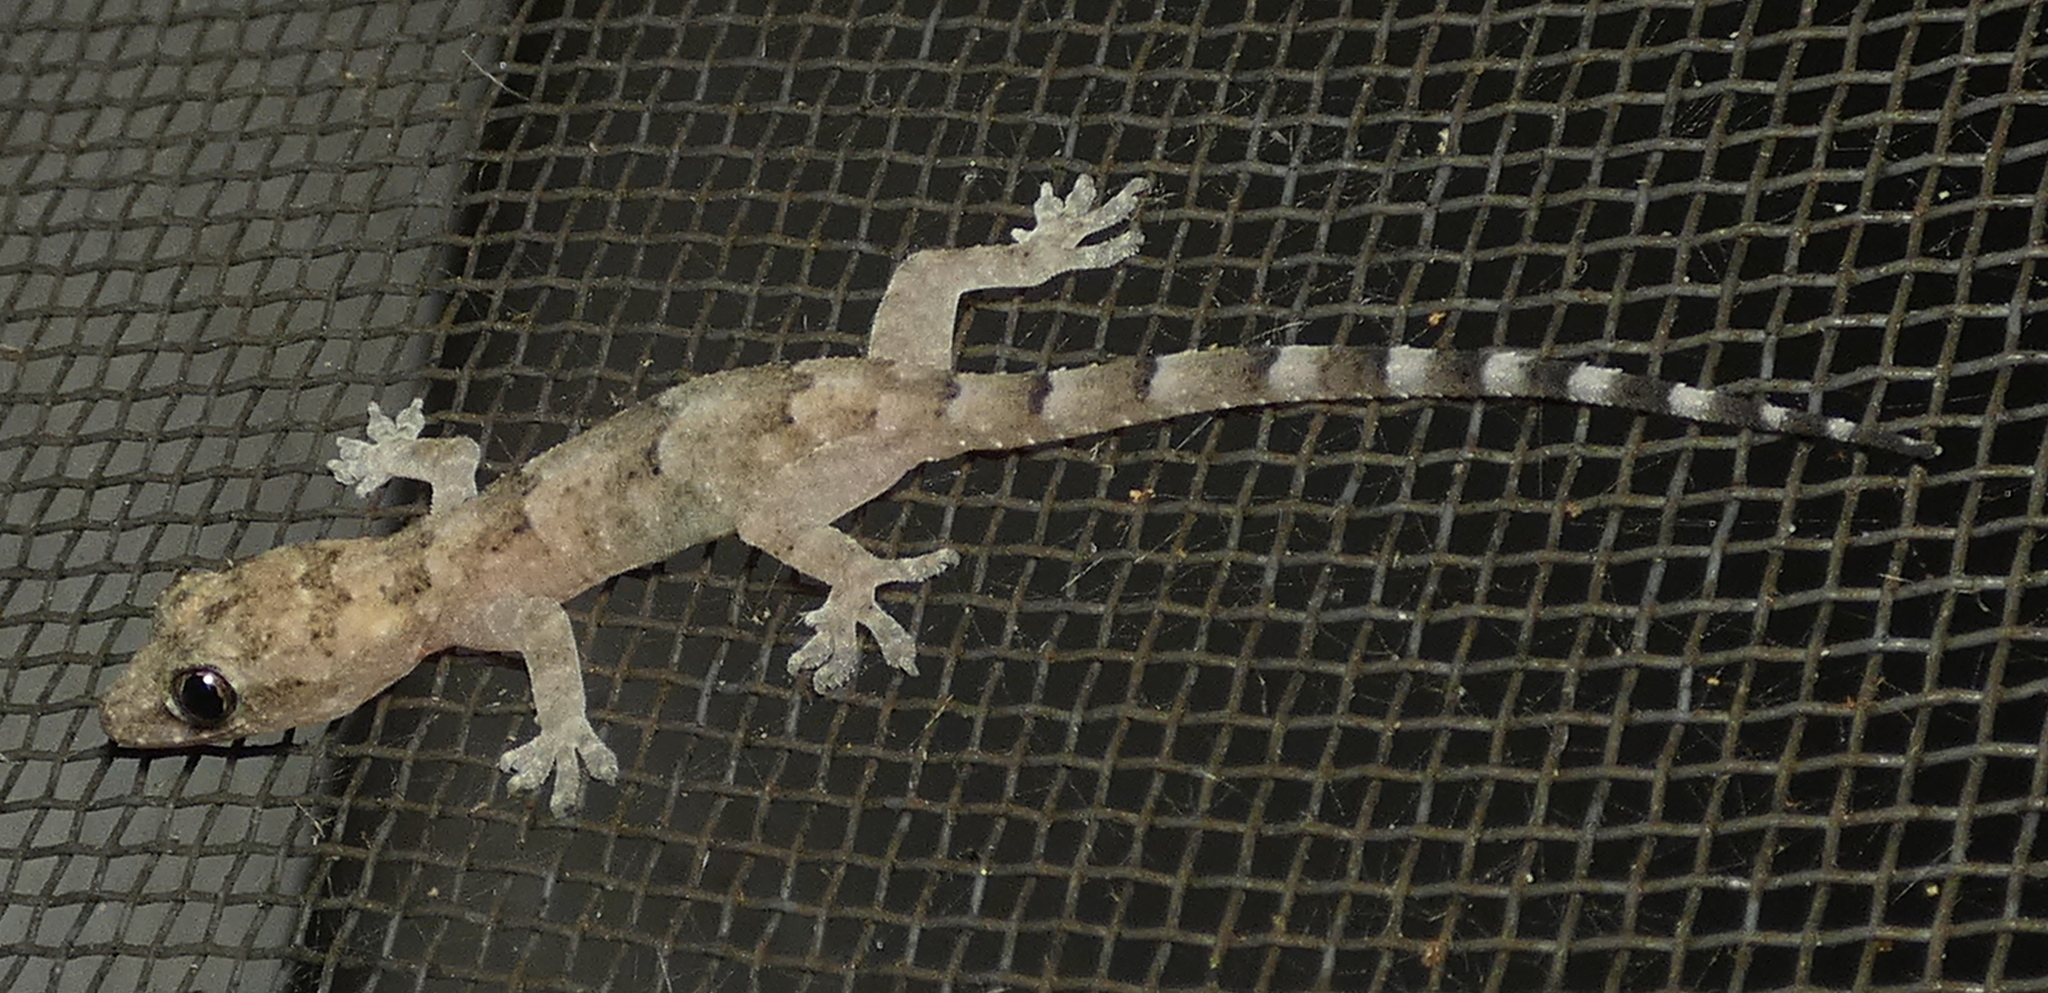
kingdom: Animalia
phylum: Chordata
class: Squamata
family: Gekkonidae
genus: Hemidactylus
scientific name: Hemidactylus mabouia
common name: House gecko
